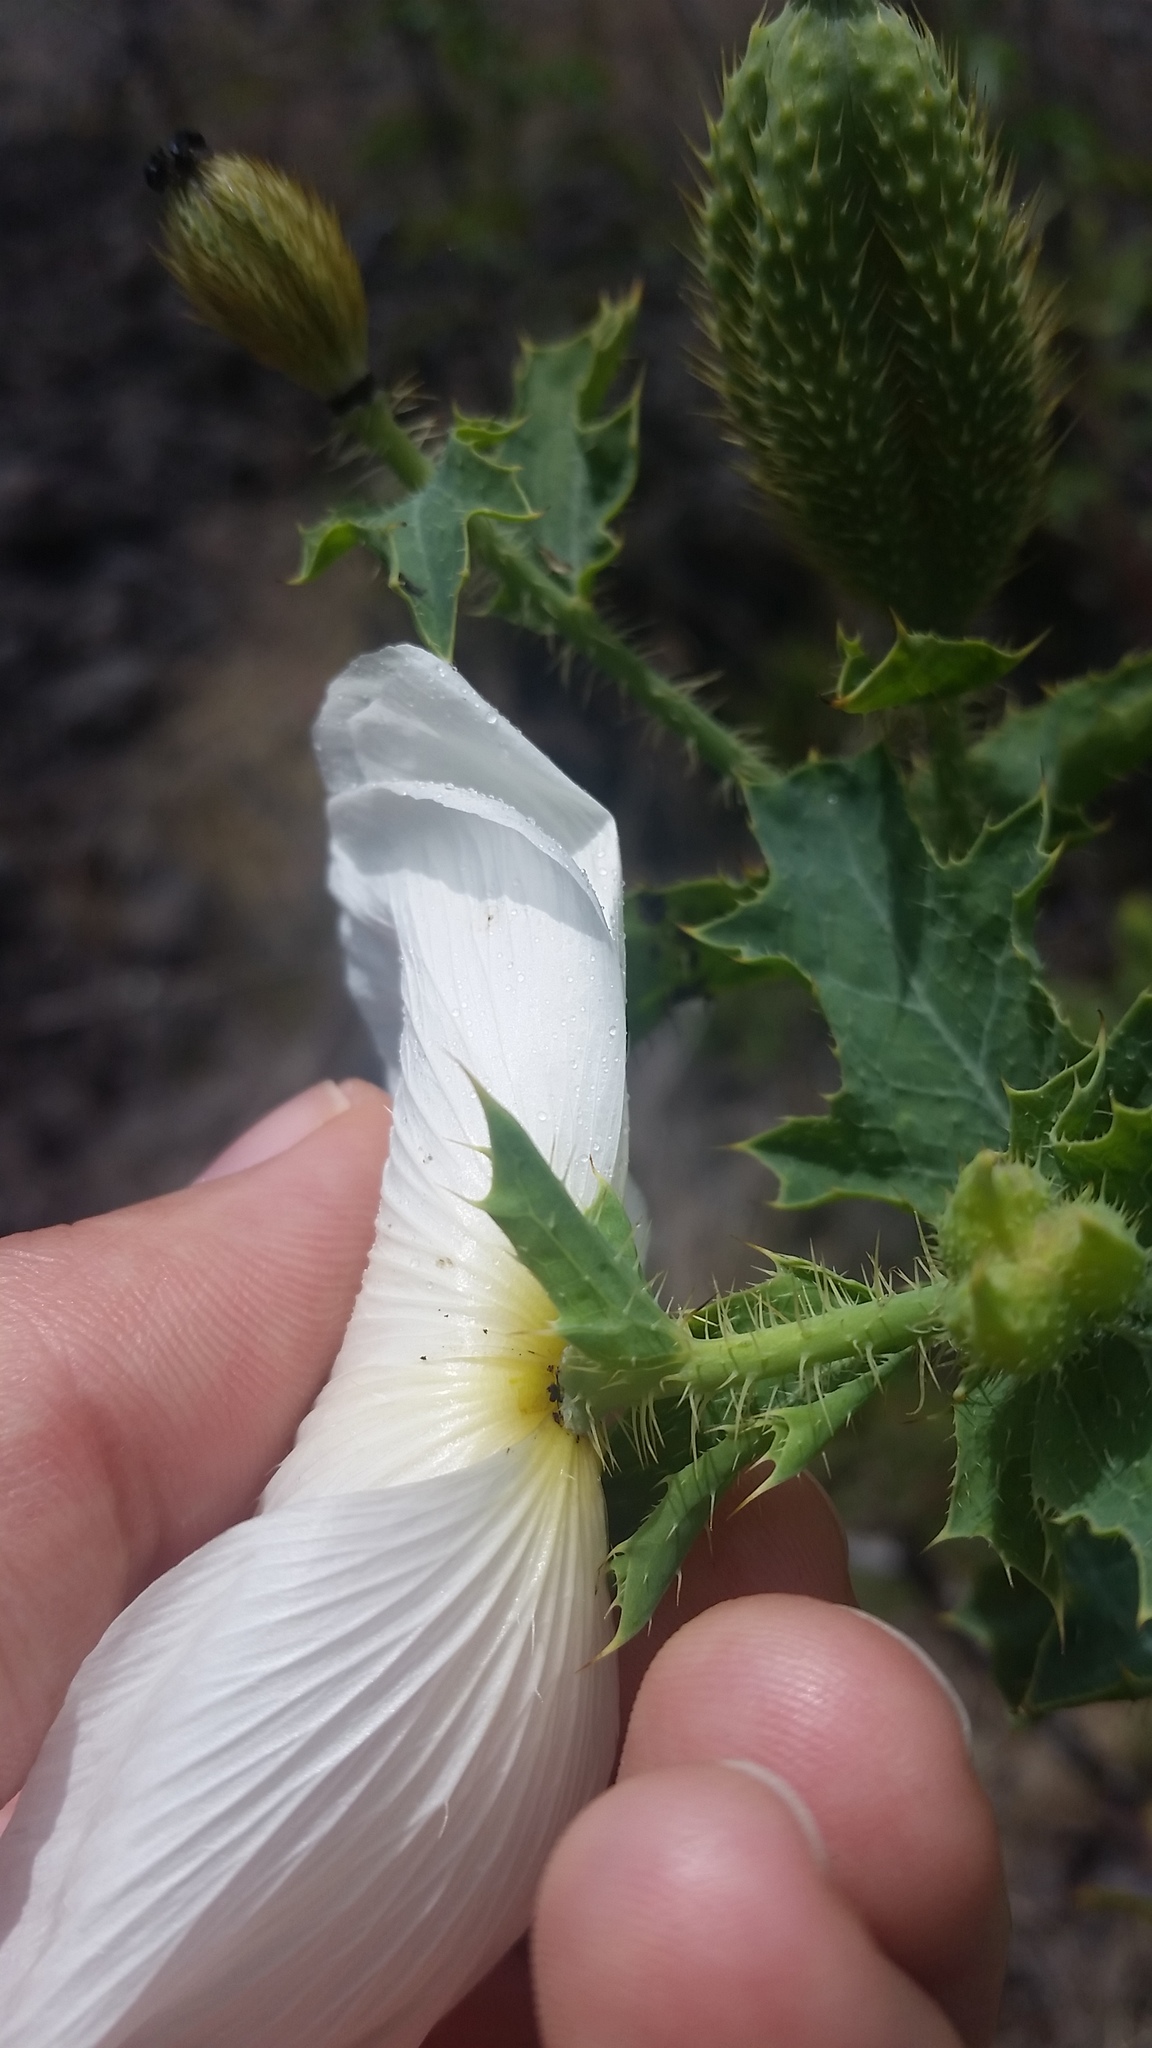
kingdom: Plantae
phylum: Tracheophyta
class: Magnoliopsida
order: Ranunculales
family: Papaveraceae
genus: Argemone
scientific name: Argemone glauca
